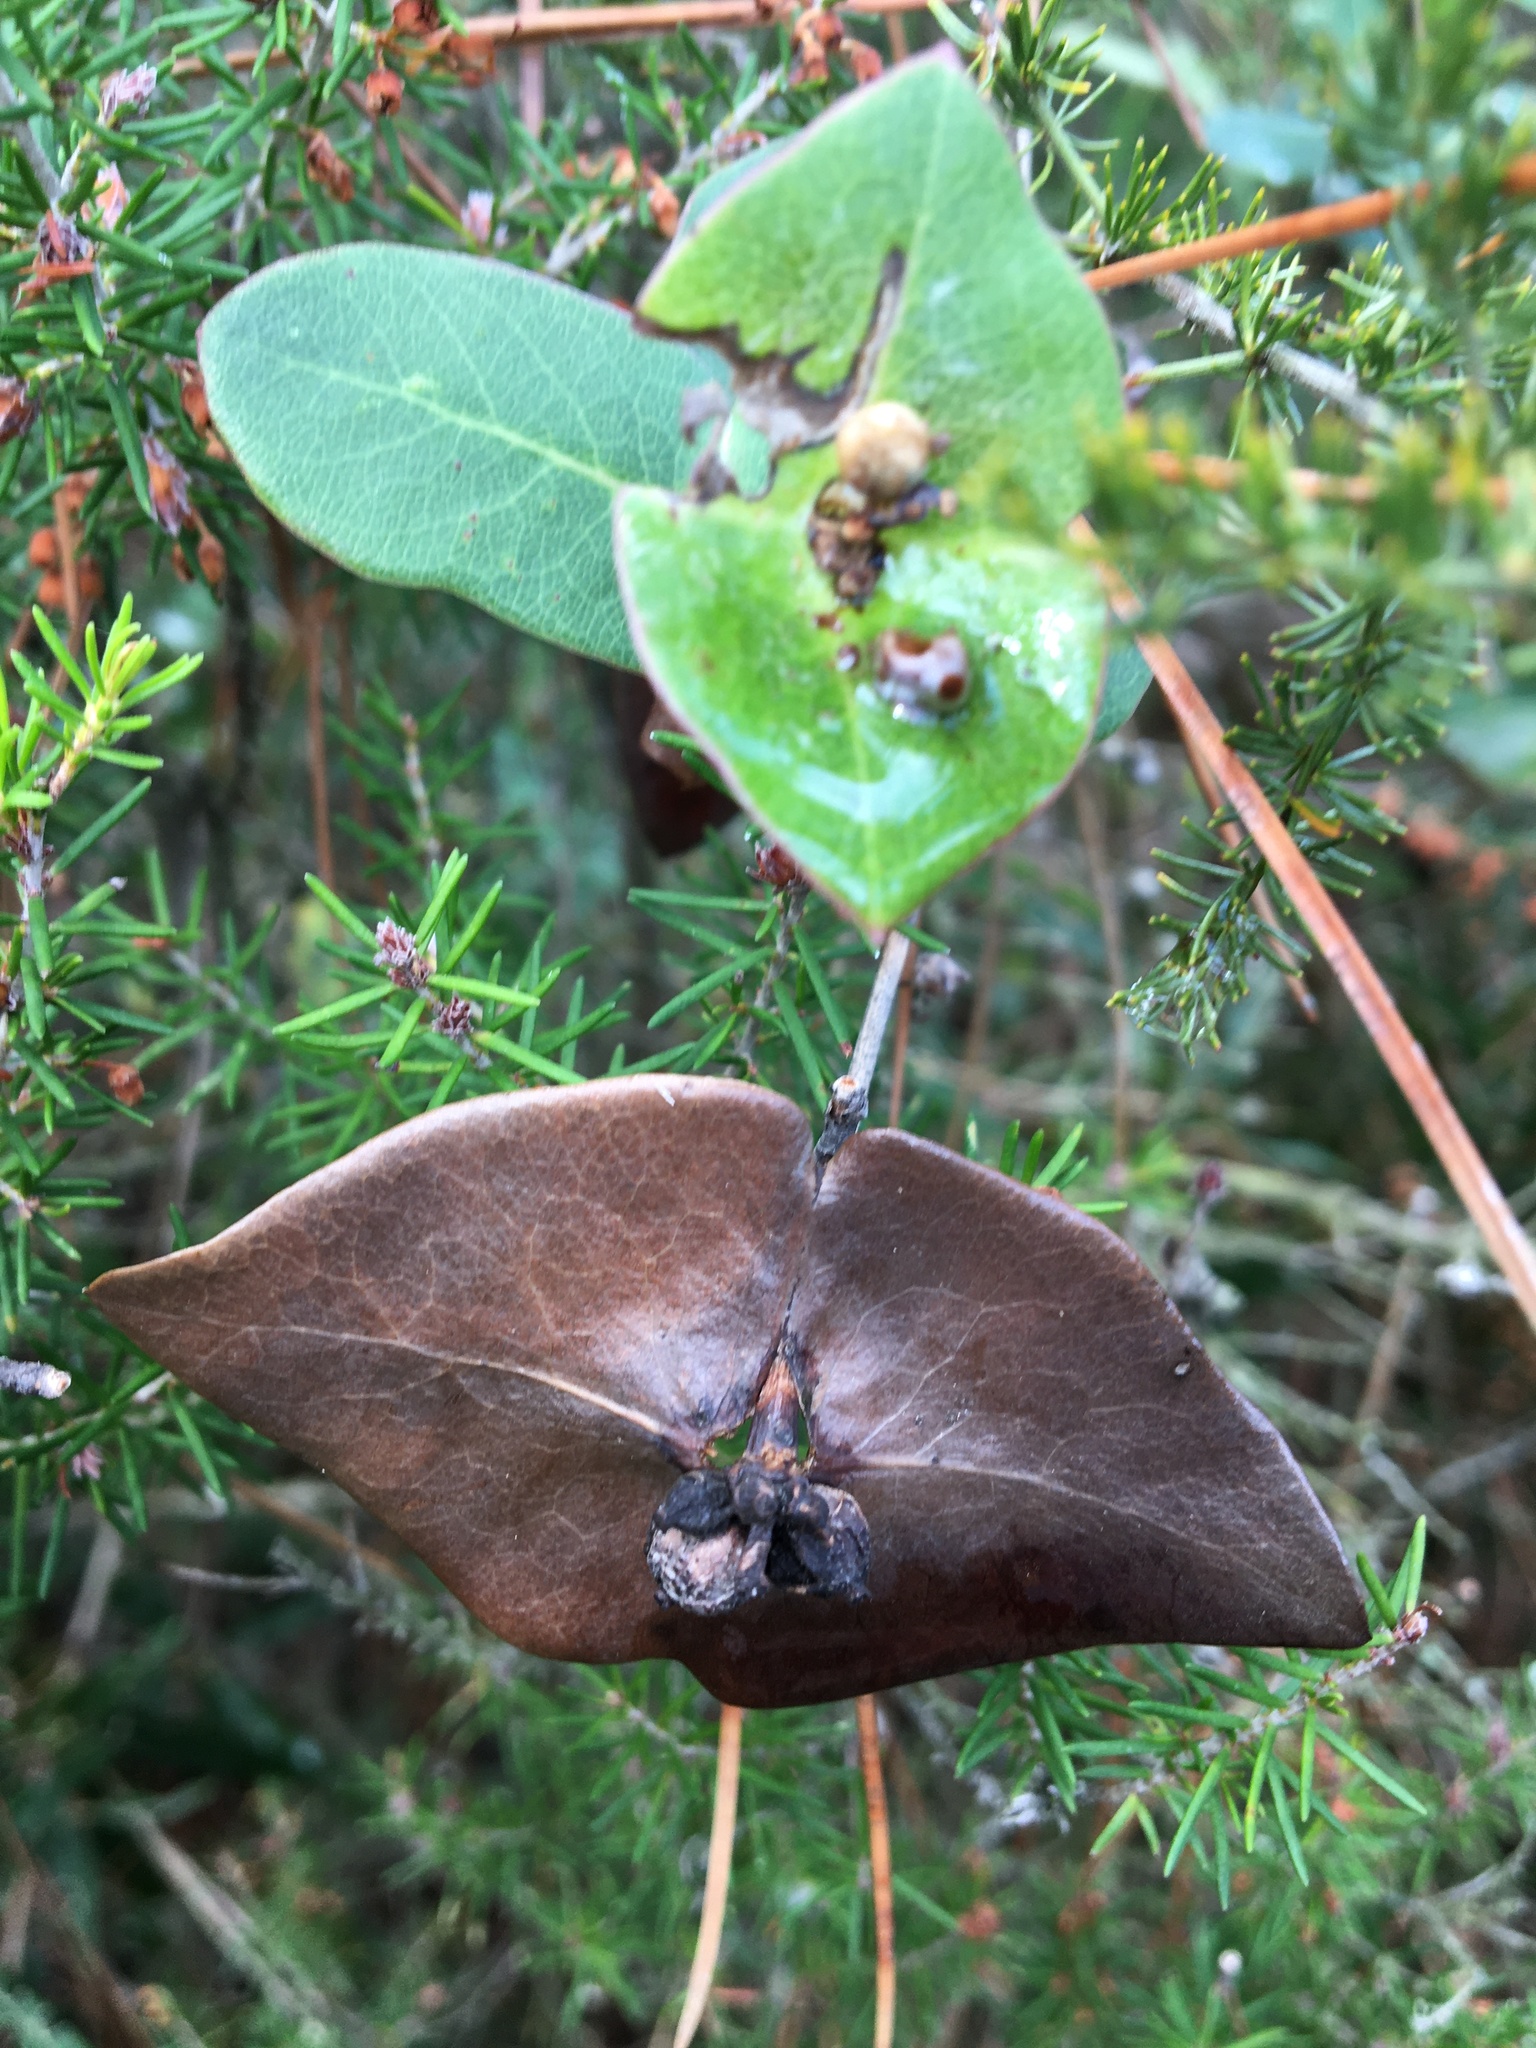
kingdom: Plantae
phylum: Tracheophyta
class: Magnoliopsida
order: Dipsacales
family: Caprifoliaceae
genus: Lonicera
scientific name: Lonicera implexa
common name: Minorca honeysuckle
